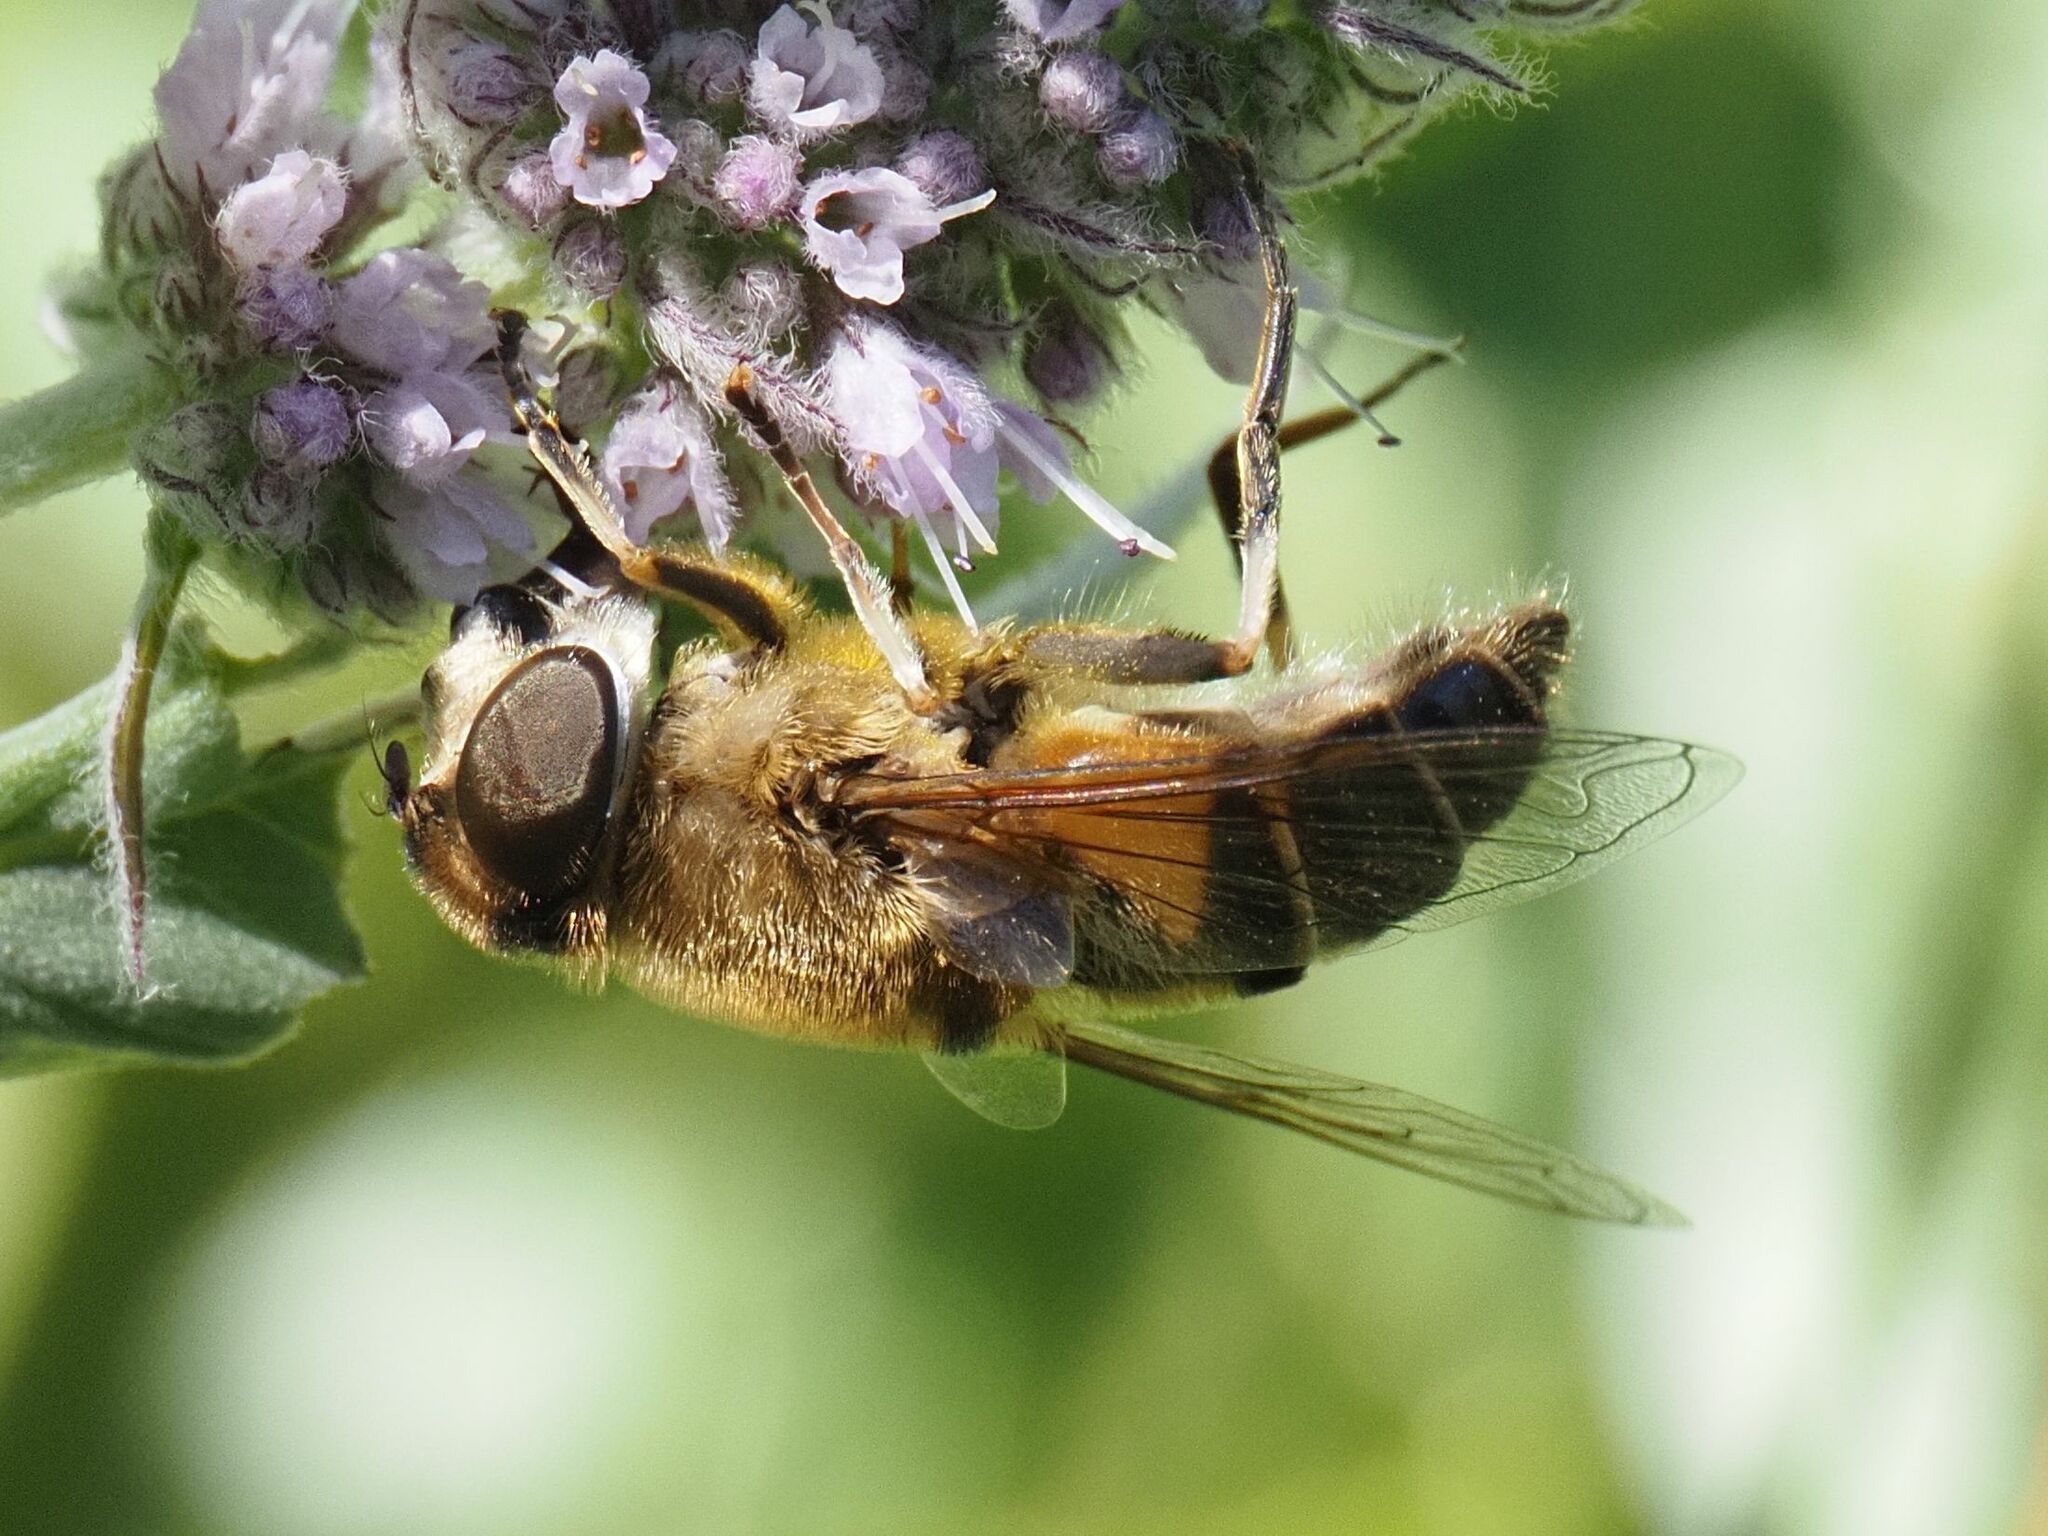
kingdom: Animalia
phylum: Arthropoda
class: Insecta
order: Diptera
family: Syrphidae
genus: Eristalis
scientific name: Eristalis pertinax
